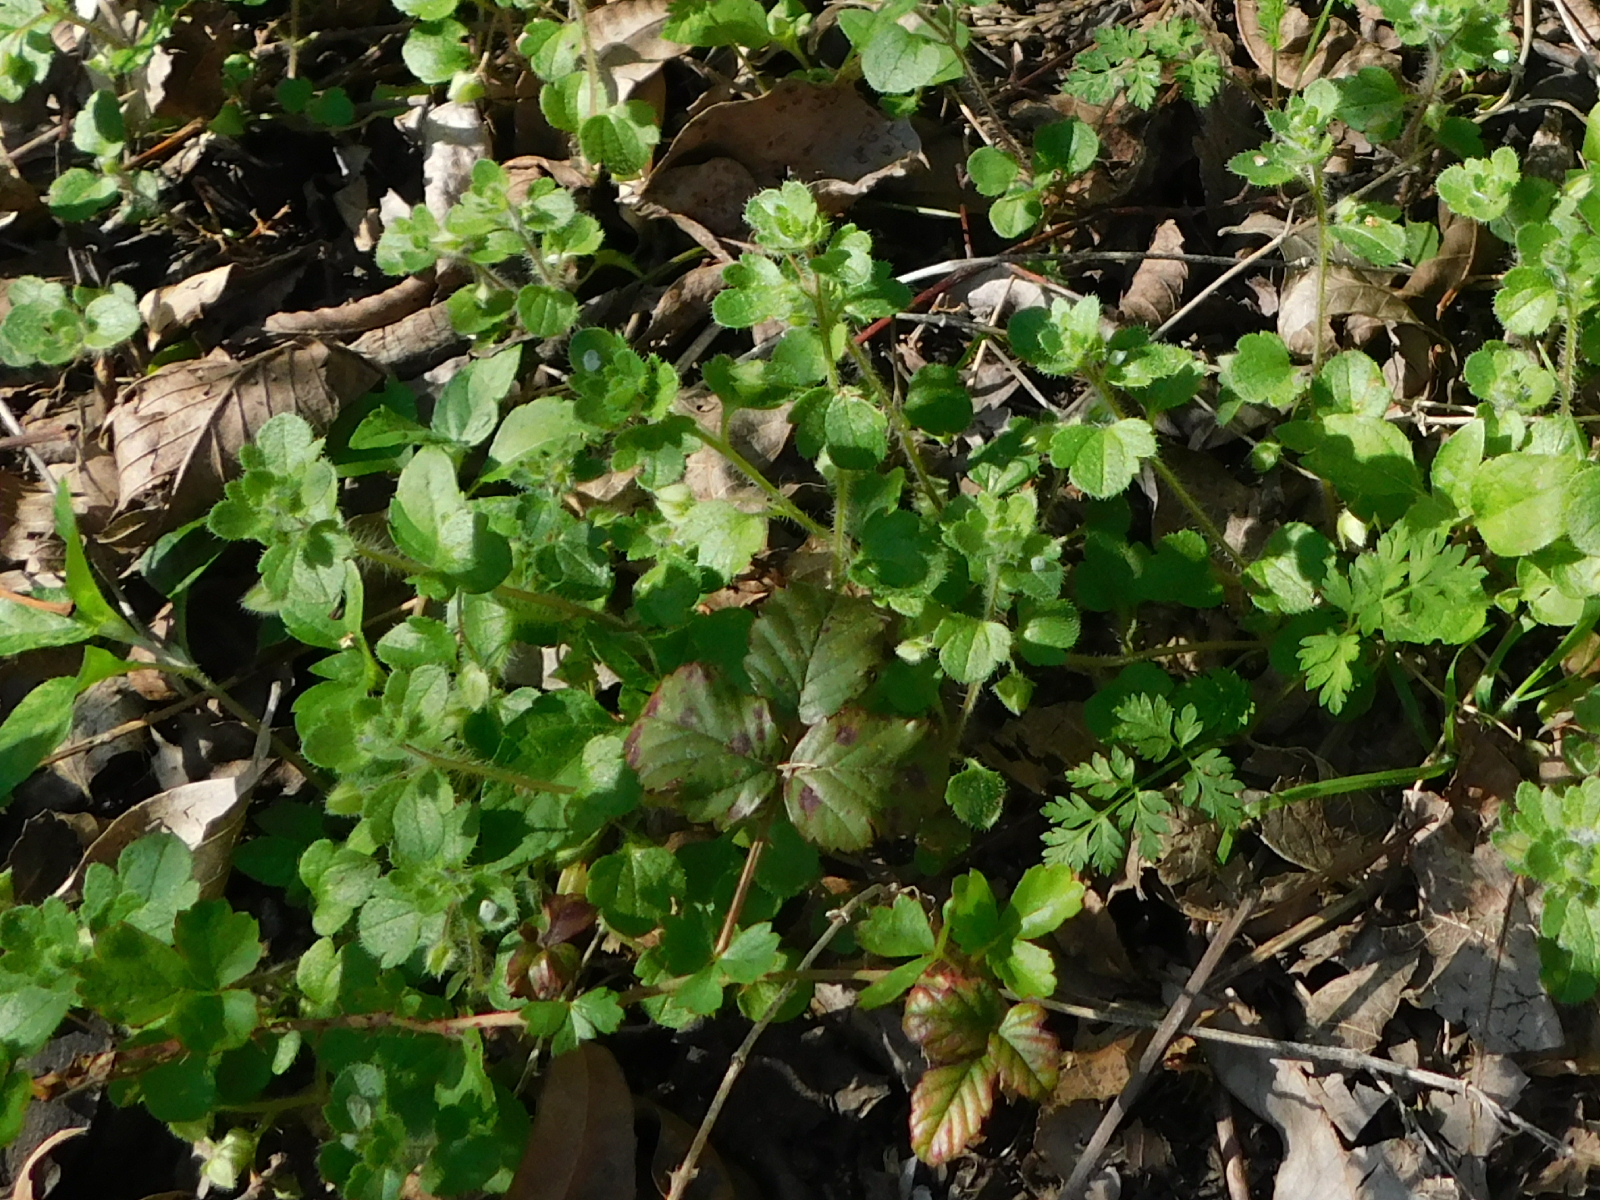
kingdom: Plantae
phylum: Tracheophyta
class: Magnoliopsida
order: Lamiales
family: Plantaginaceae
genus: Veronica
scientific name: Veronica hederifolia
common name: Ivy-leaved speedwell
